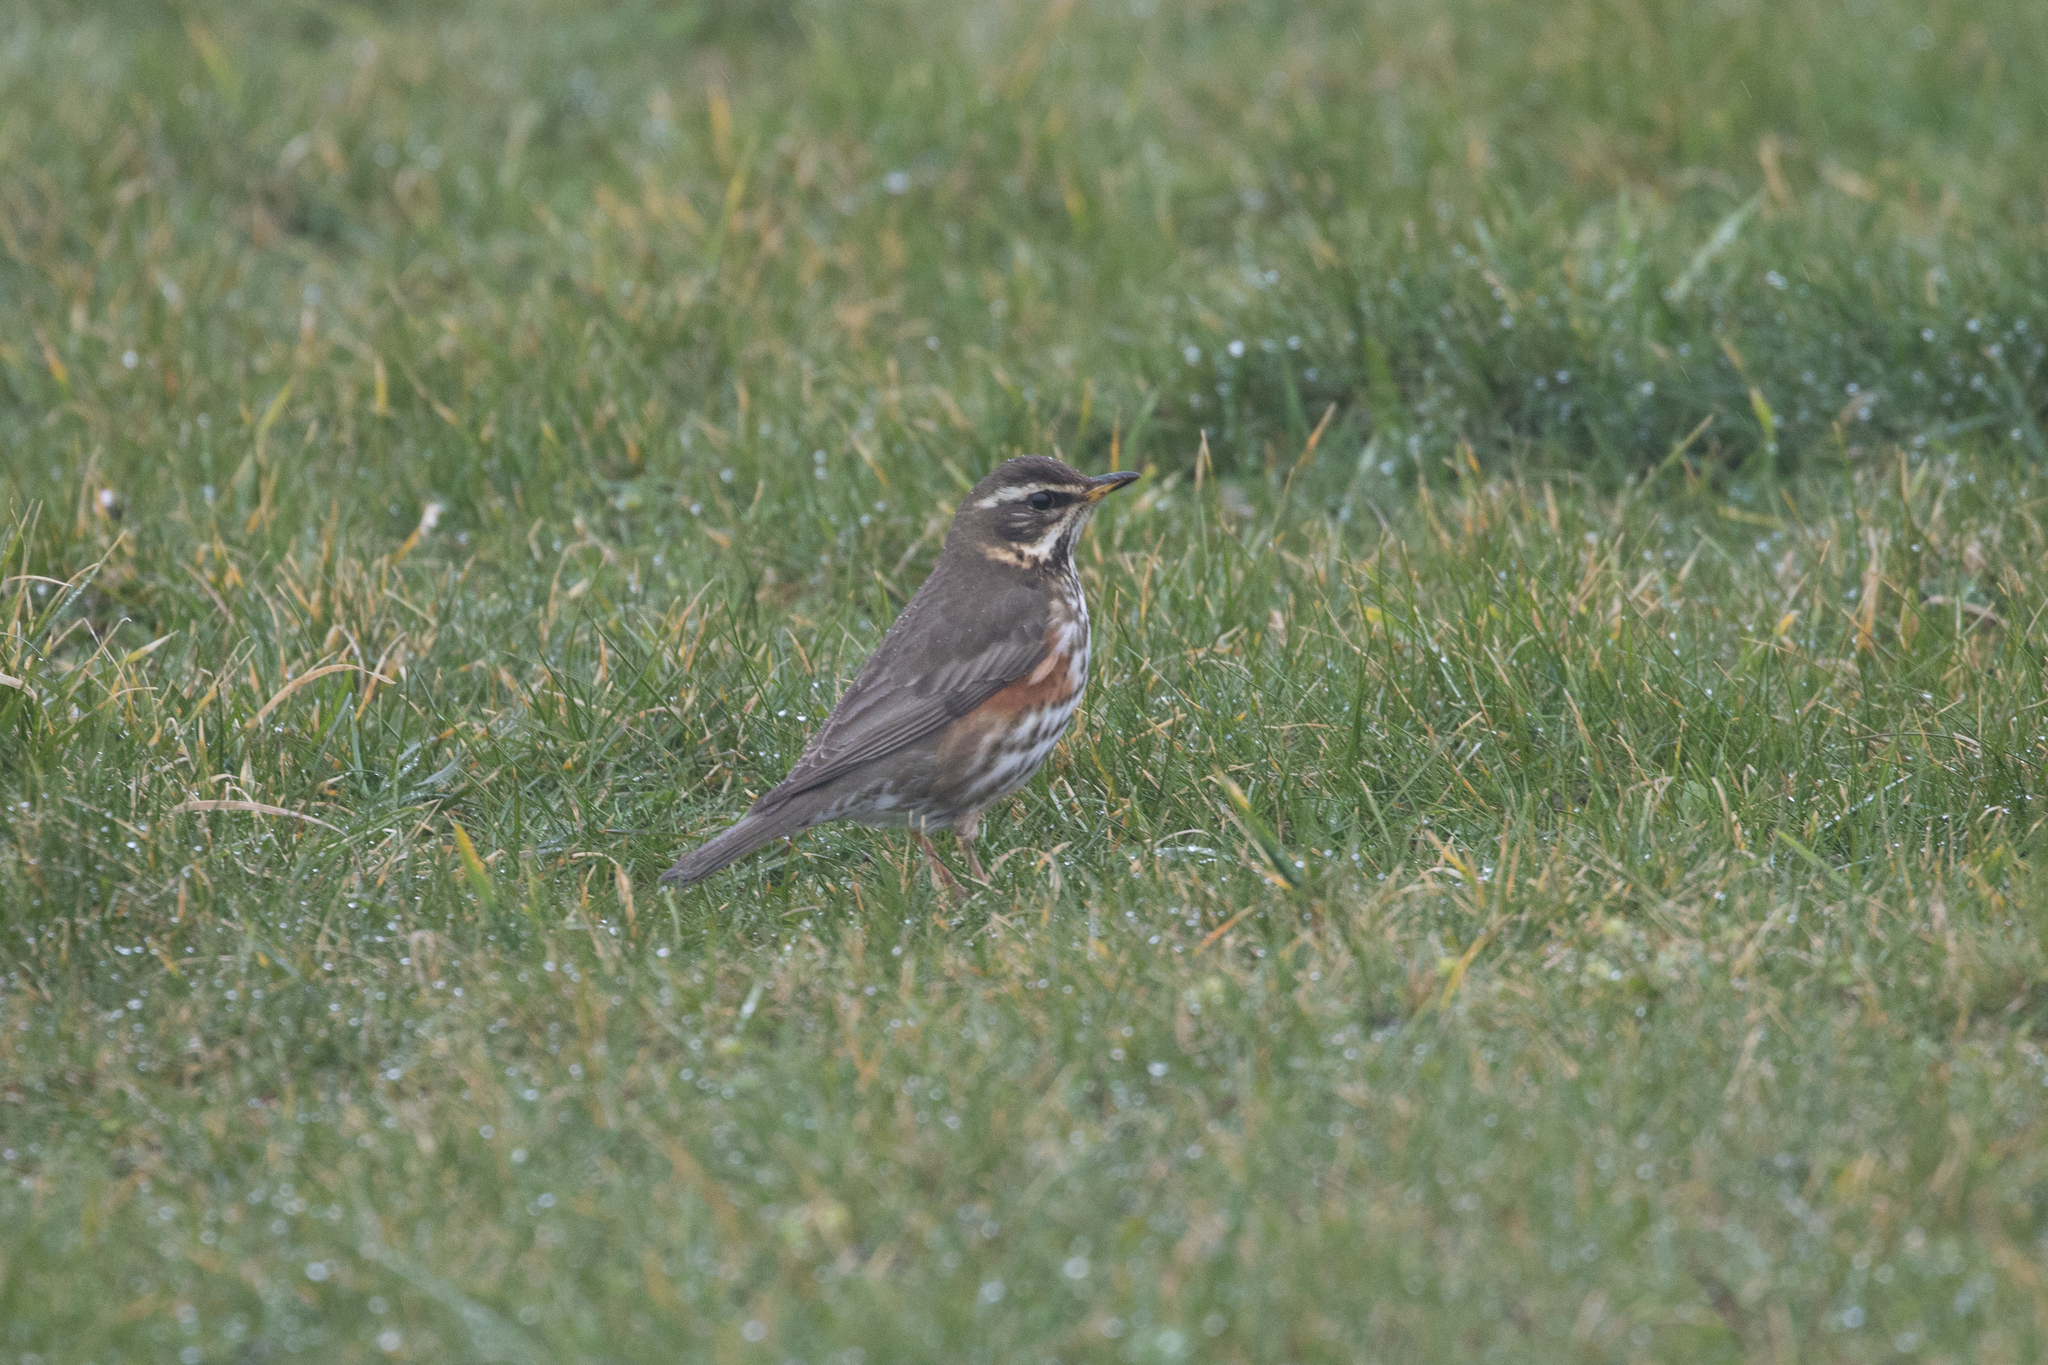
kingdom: Animalia
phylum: Chordata
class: Aves
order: Passeriformes
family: Turdidae
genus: Turdus
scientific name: Turdus iliacus
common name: Redwing
